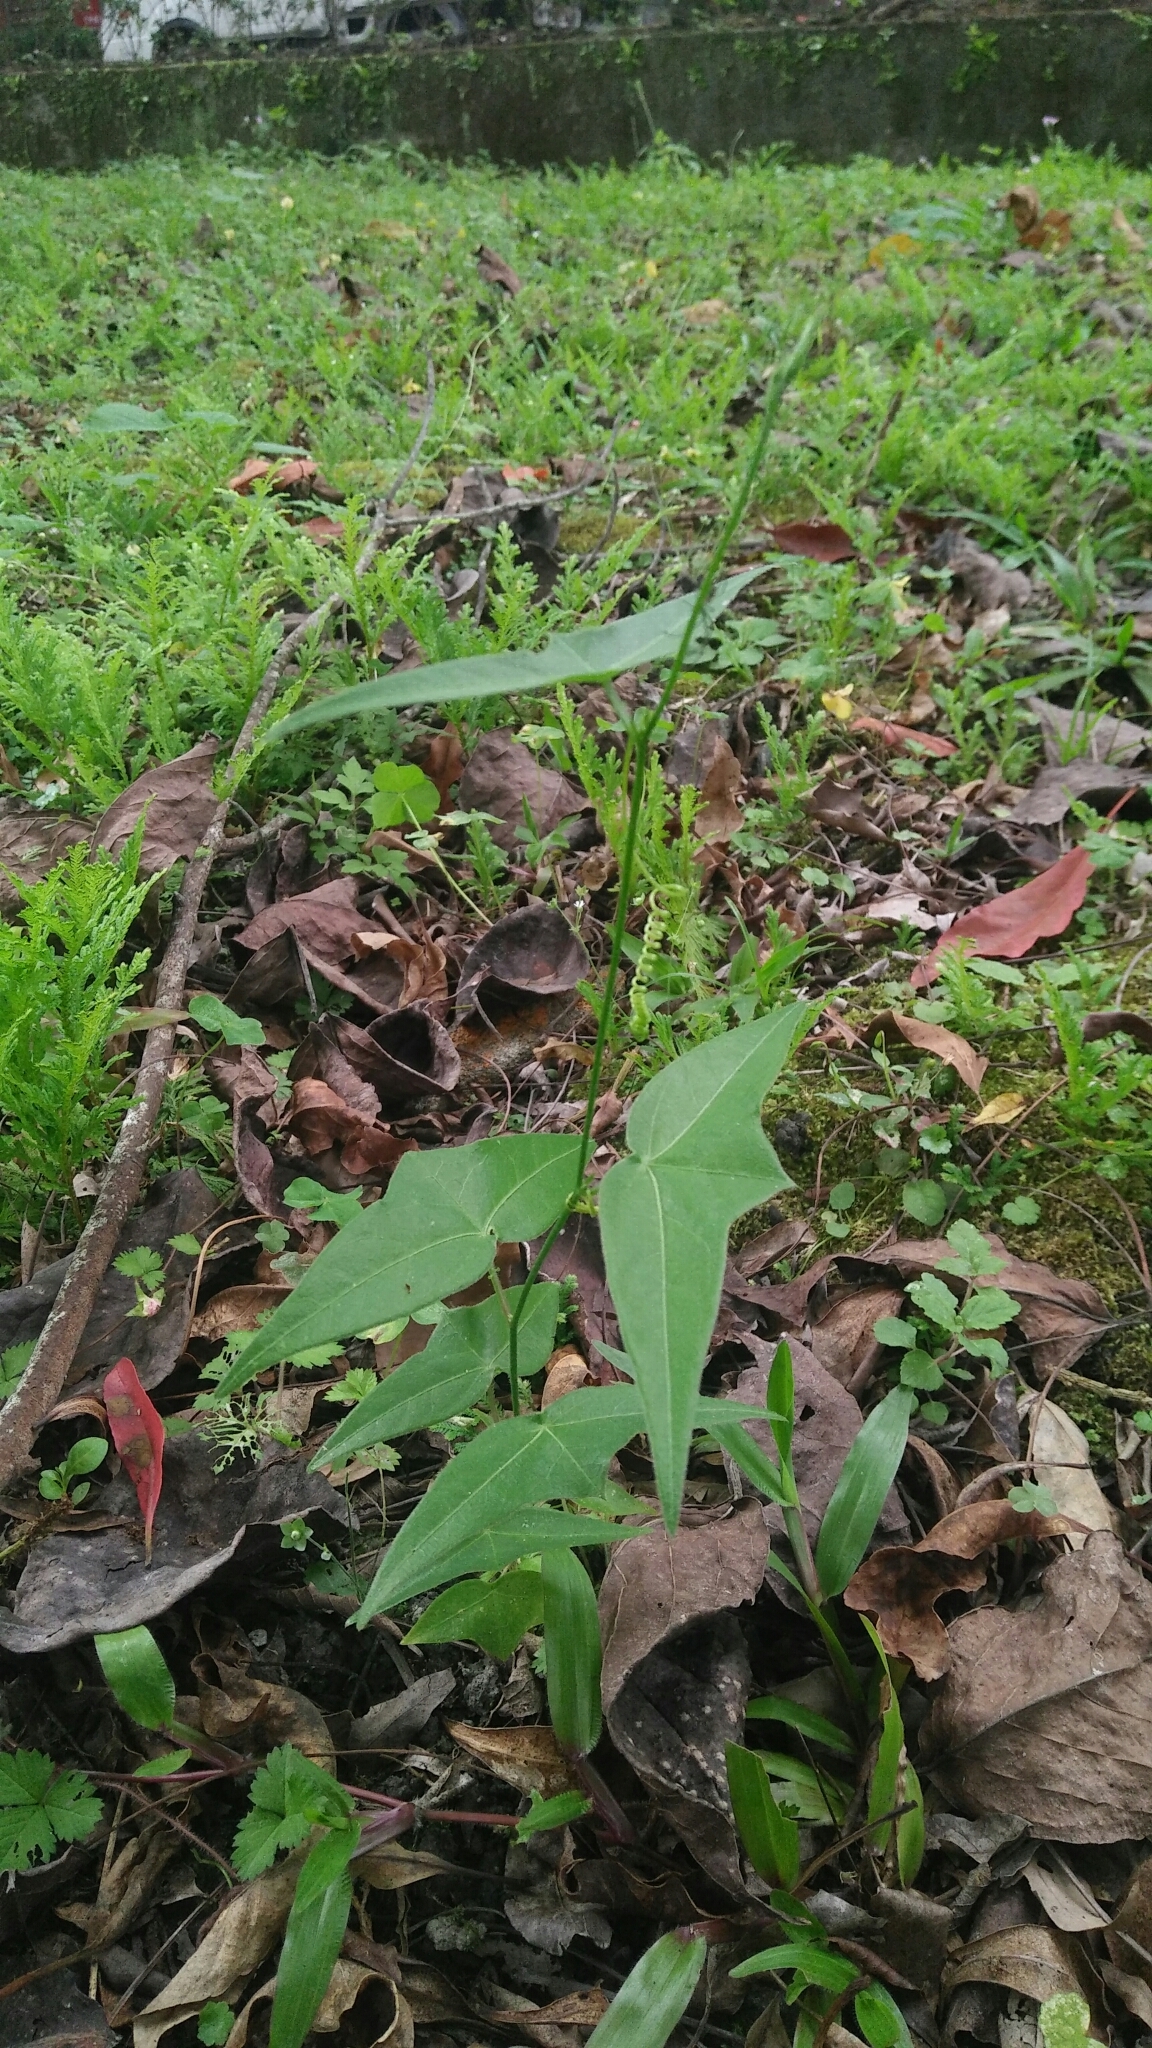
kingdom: Plantae
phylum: Tracheophyta
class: Magnoliopsida
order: Malpighiales
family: Passifloraceae
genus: Passiflora
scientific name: Passiflora suberosa
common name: Wild passionfruit
